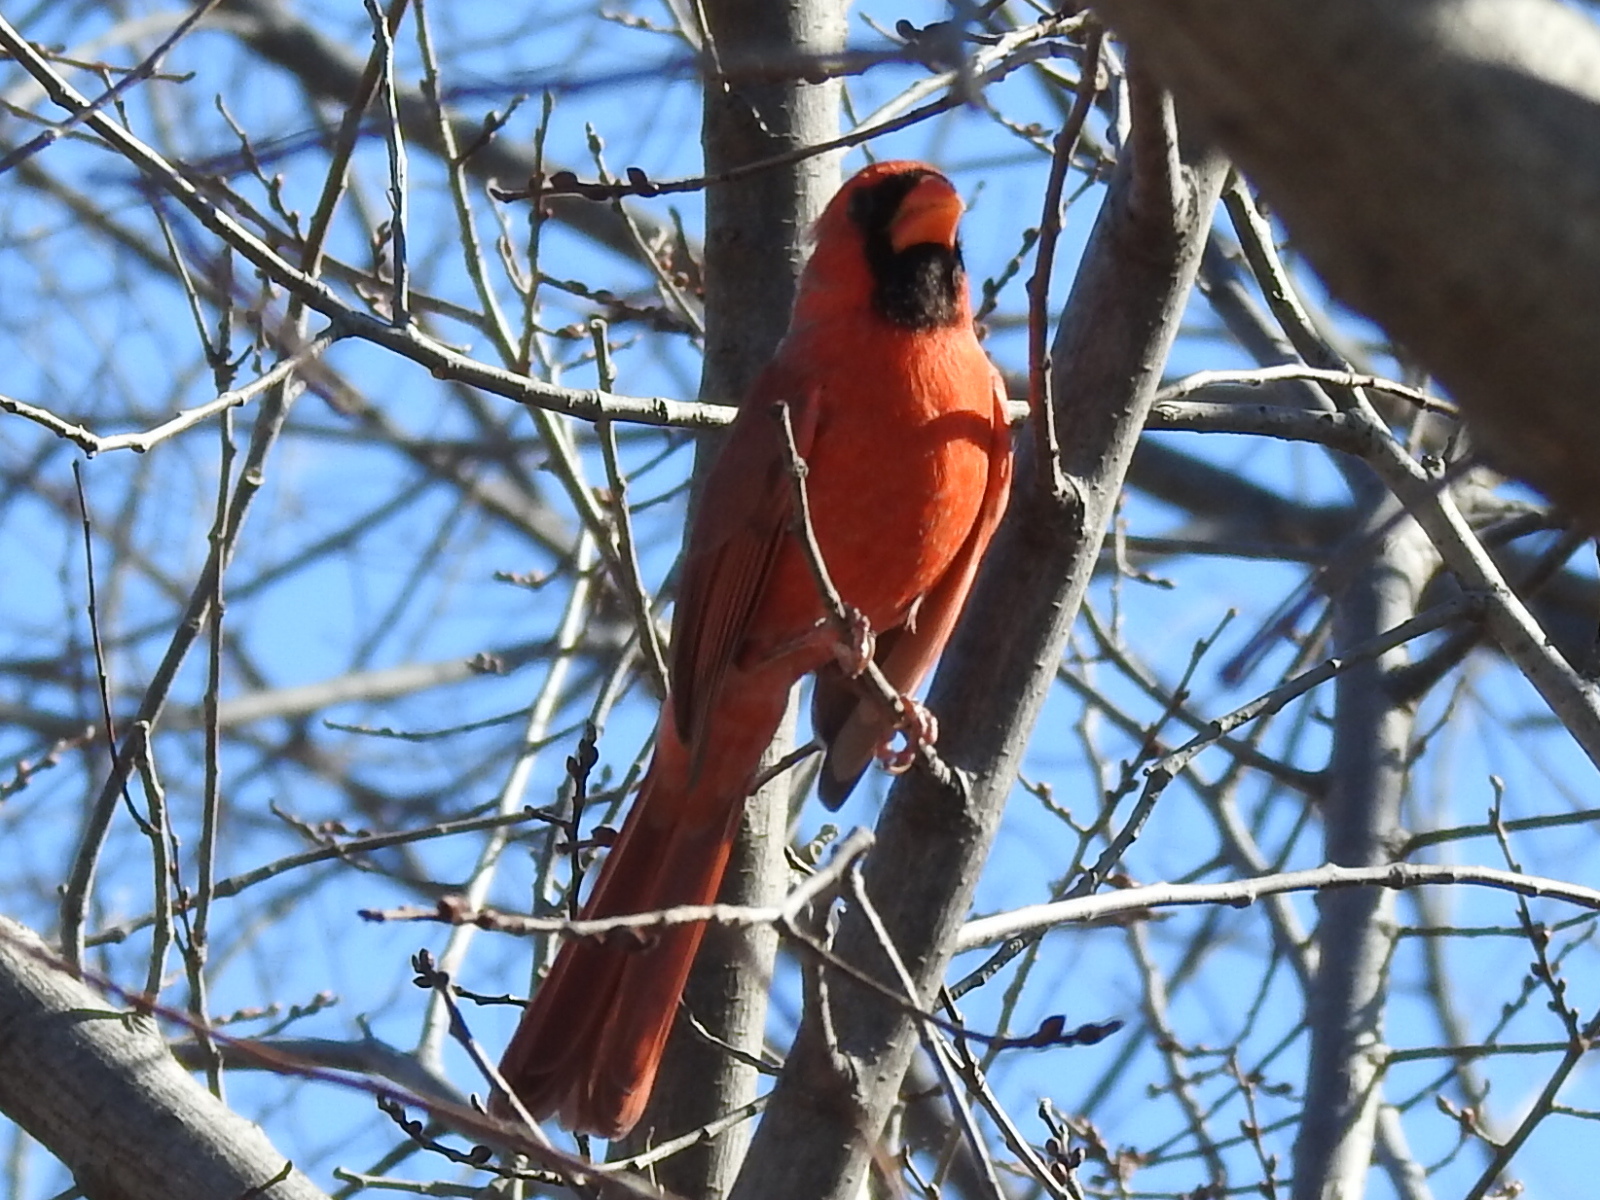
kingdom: Animalia
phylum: Chordata
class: Aves
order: Passeriformes
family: Cardinalidae
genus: Cardinalis
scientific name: Cardinalis cardinalis
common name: Northern cardinal
